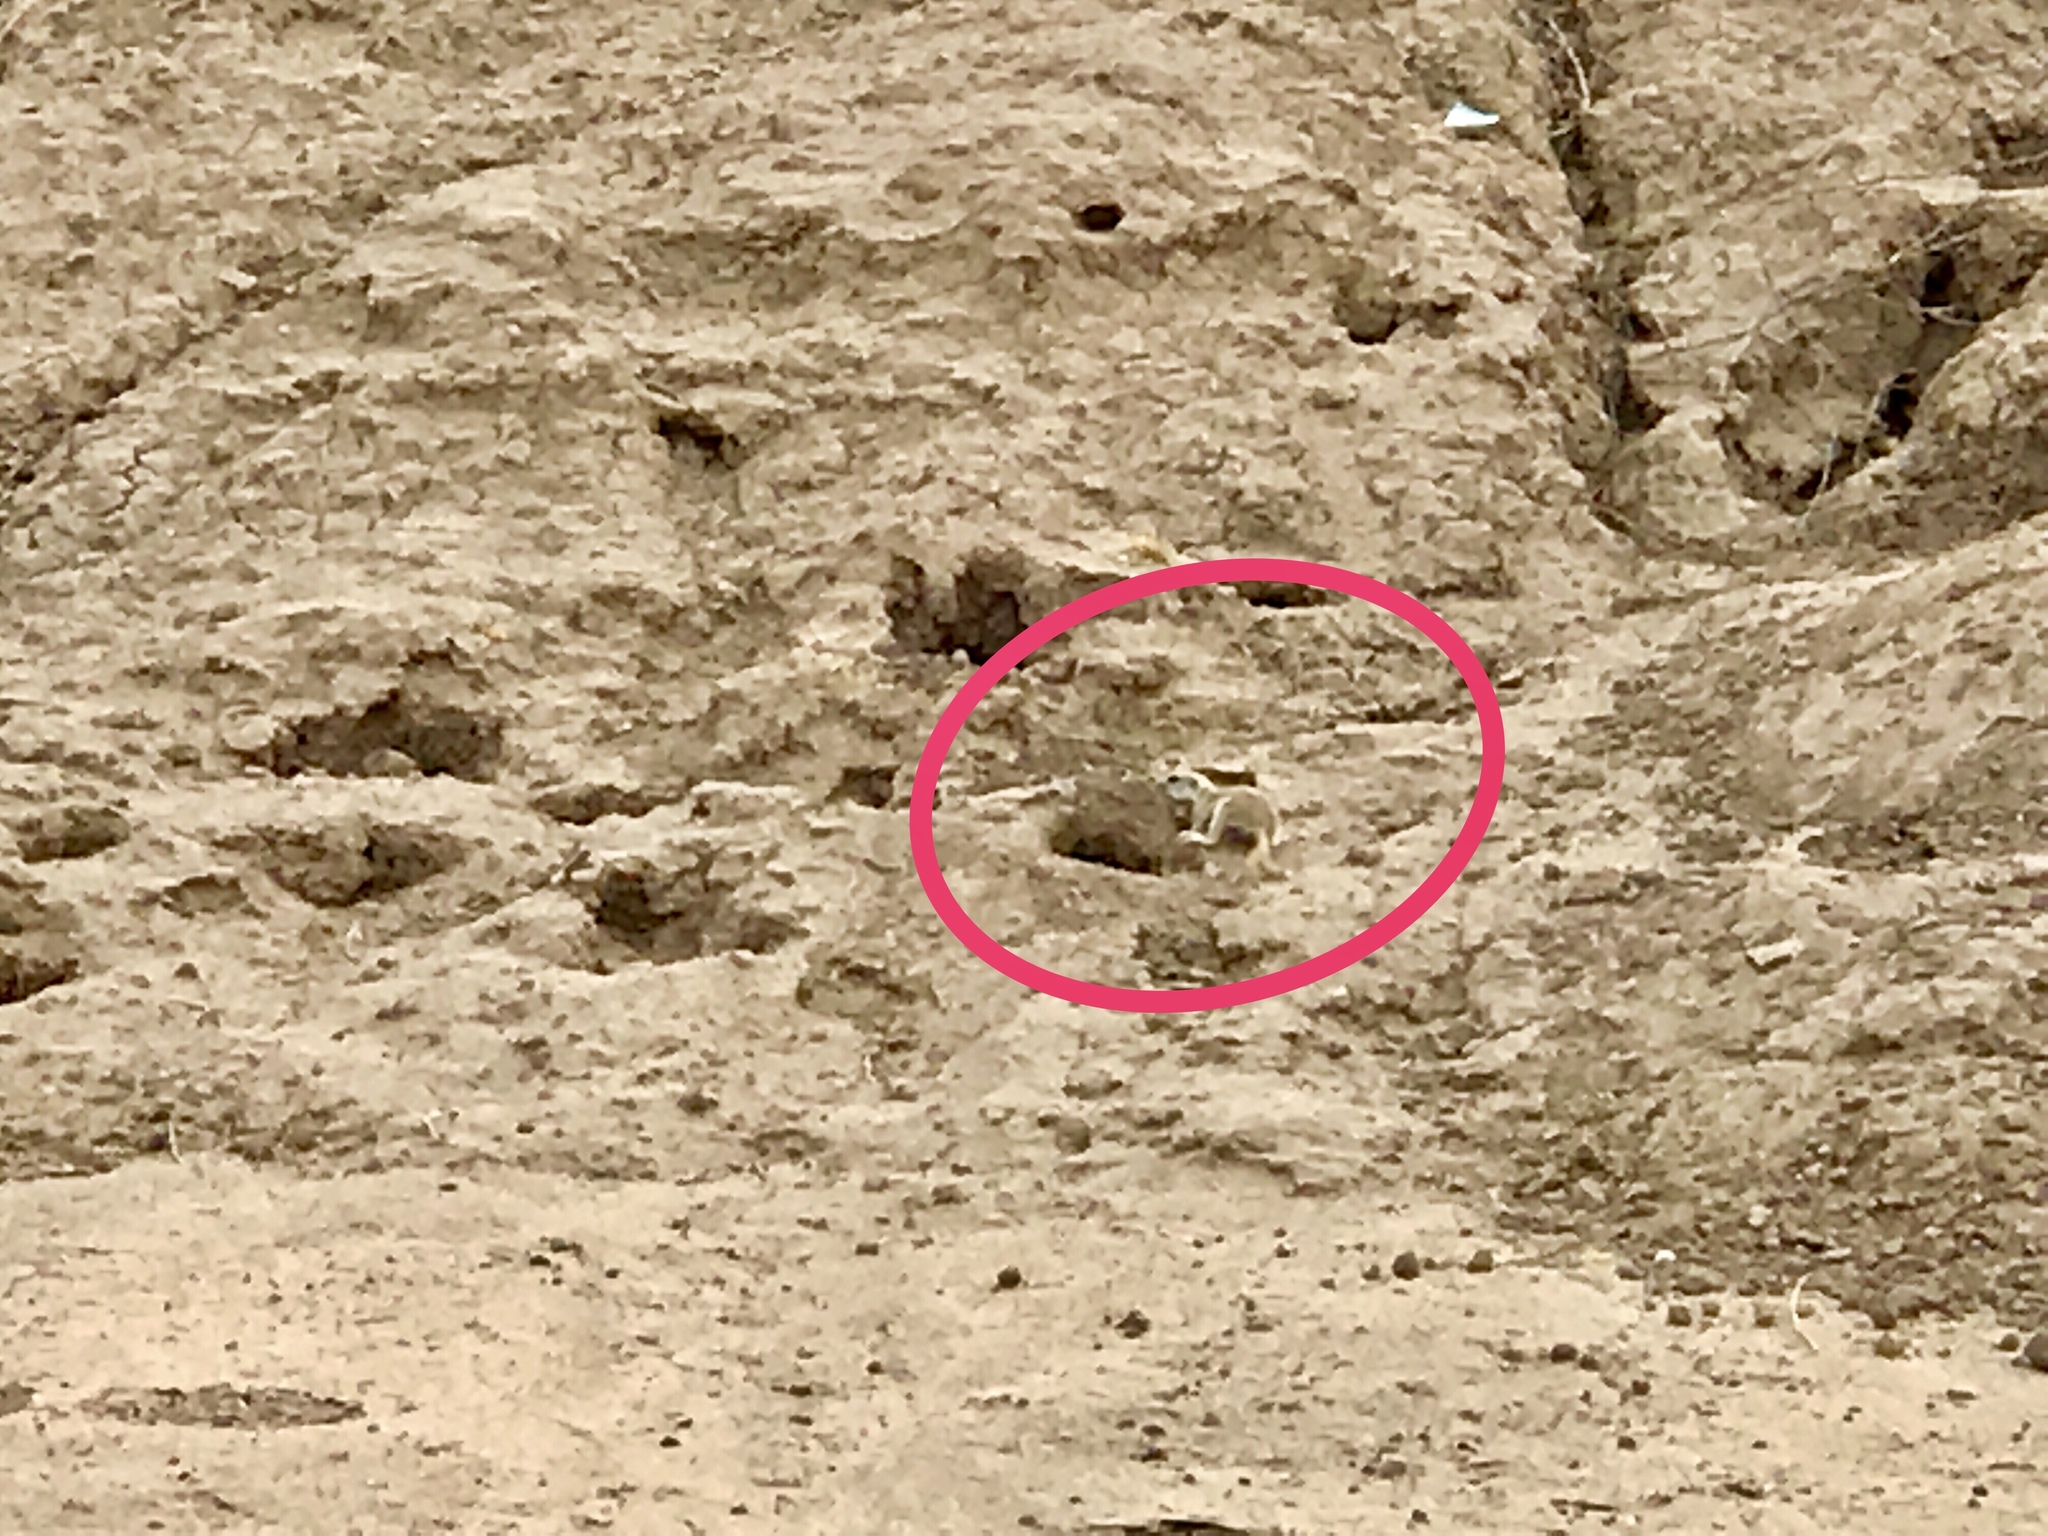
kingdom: Animalia
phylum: Chordata
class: Mammalia
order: Rodentia
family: Sciuridae
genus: Xerospermophilus
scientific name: Xerospermophilus tereticaudus
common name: Round-tailed ground squirrel
